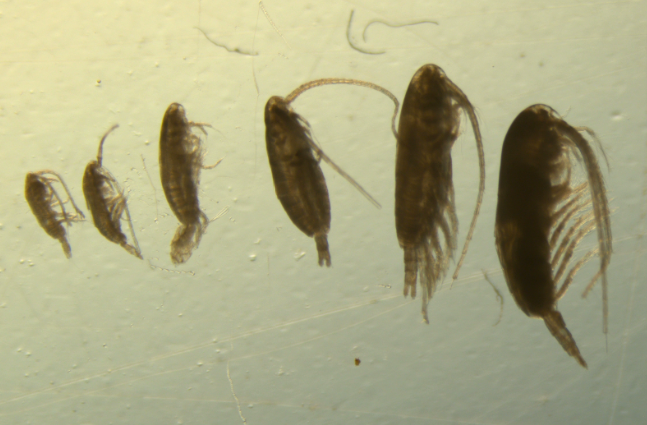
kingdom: Animalia
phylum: Arthropoda
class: Copepoda
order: Calanoida
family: Calanidae
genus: Calanus
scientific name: Calanus finmarchicus
